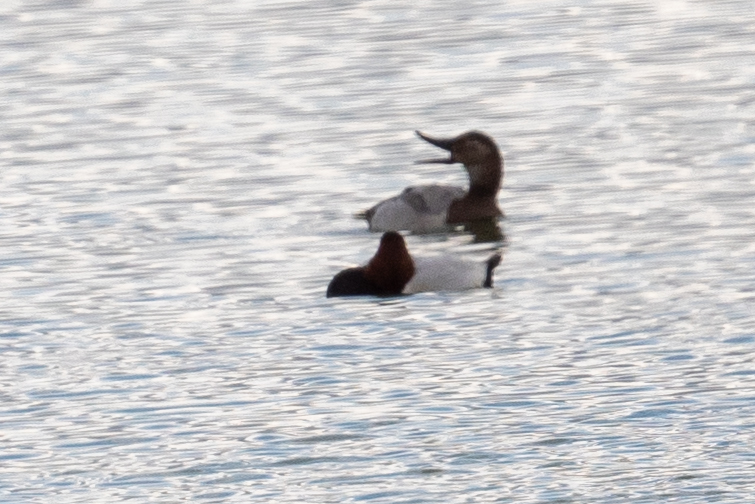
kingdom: Animalia
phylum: Chordata
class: Aves
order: Anseriformes
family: Anatidae
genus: Aythya
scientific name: Aythya valisineria
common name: Canvasback
